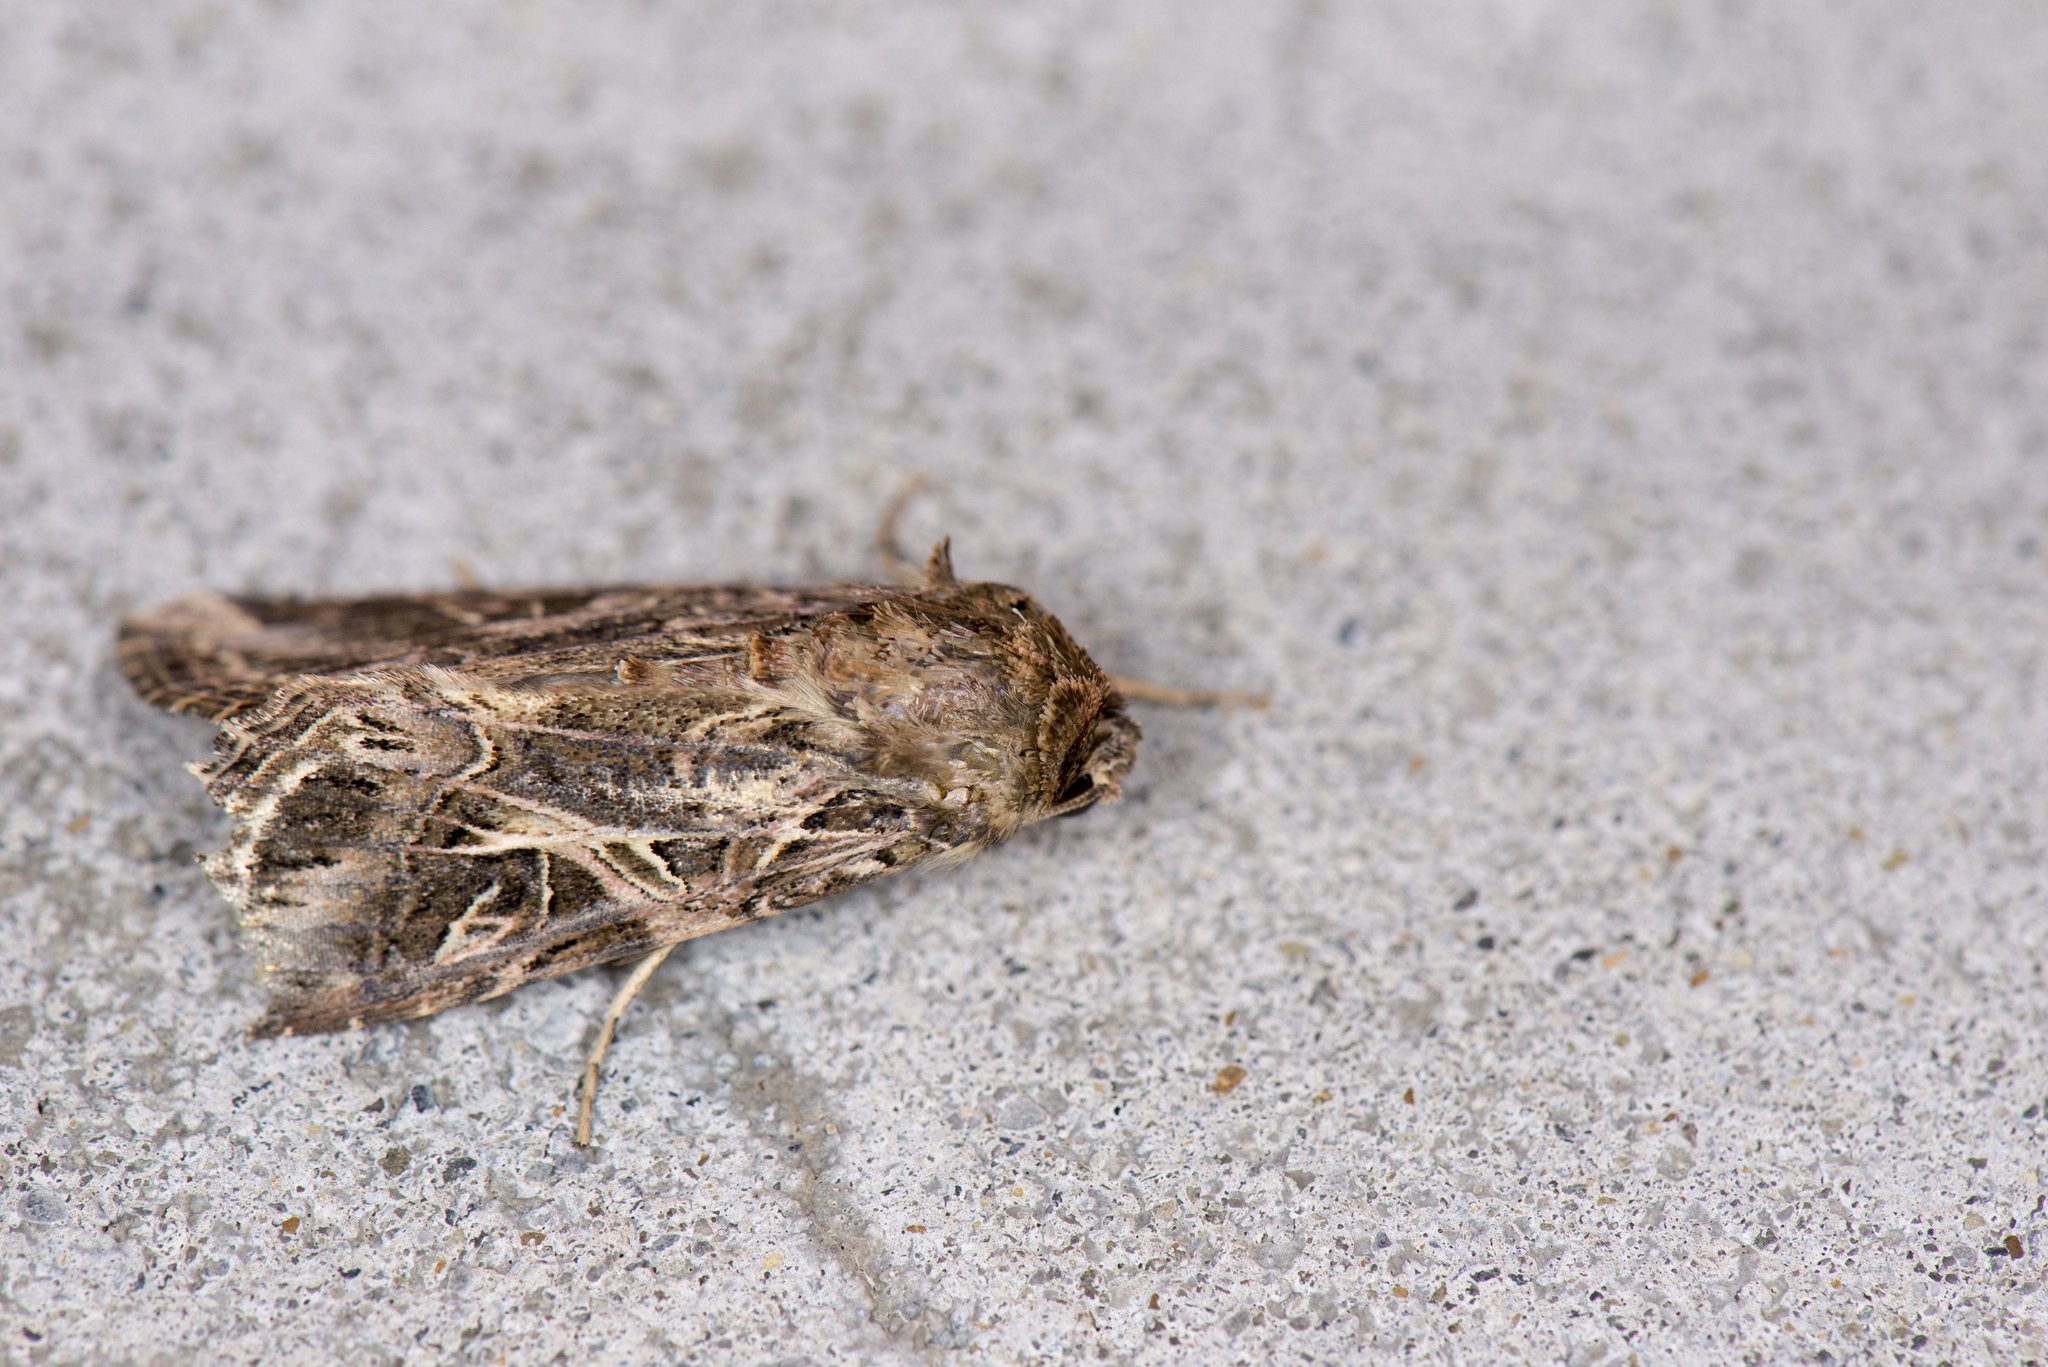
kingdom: Animalia
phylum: Arthropoda
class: Insecta
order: Lepidoptera
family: Noctuidae
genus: Spodoptera
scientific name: Spodoptera litura
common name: Asian cotton leafworm
